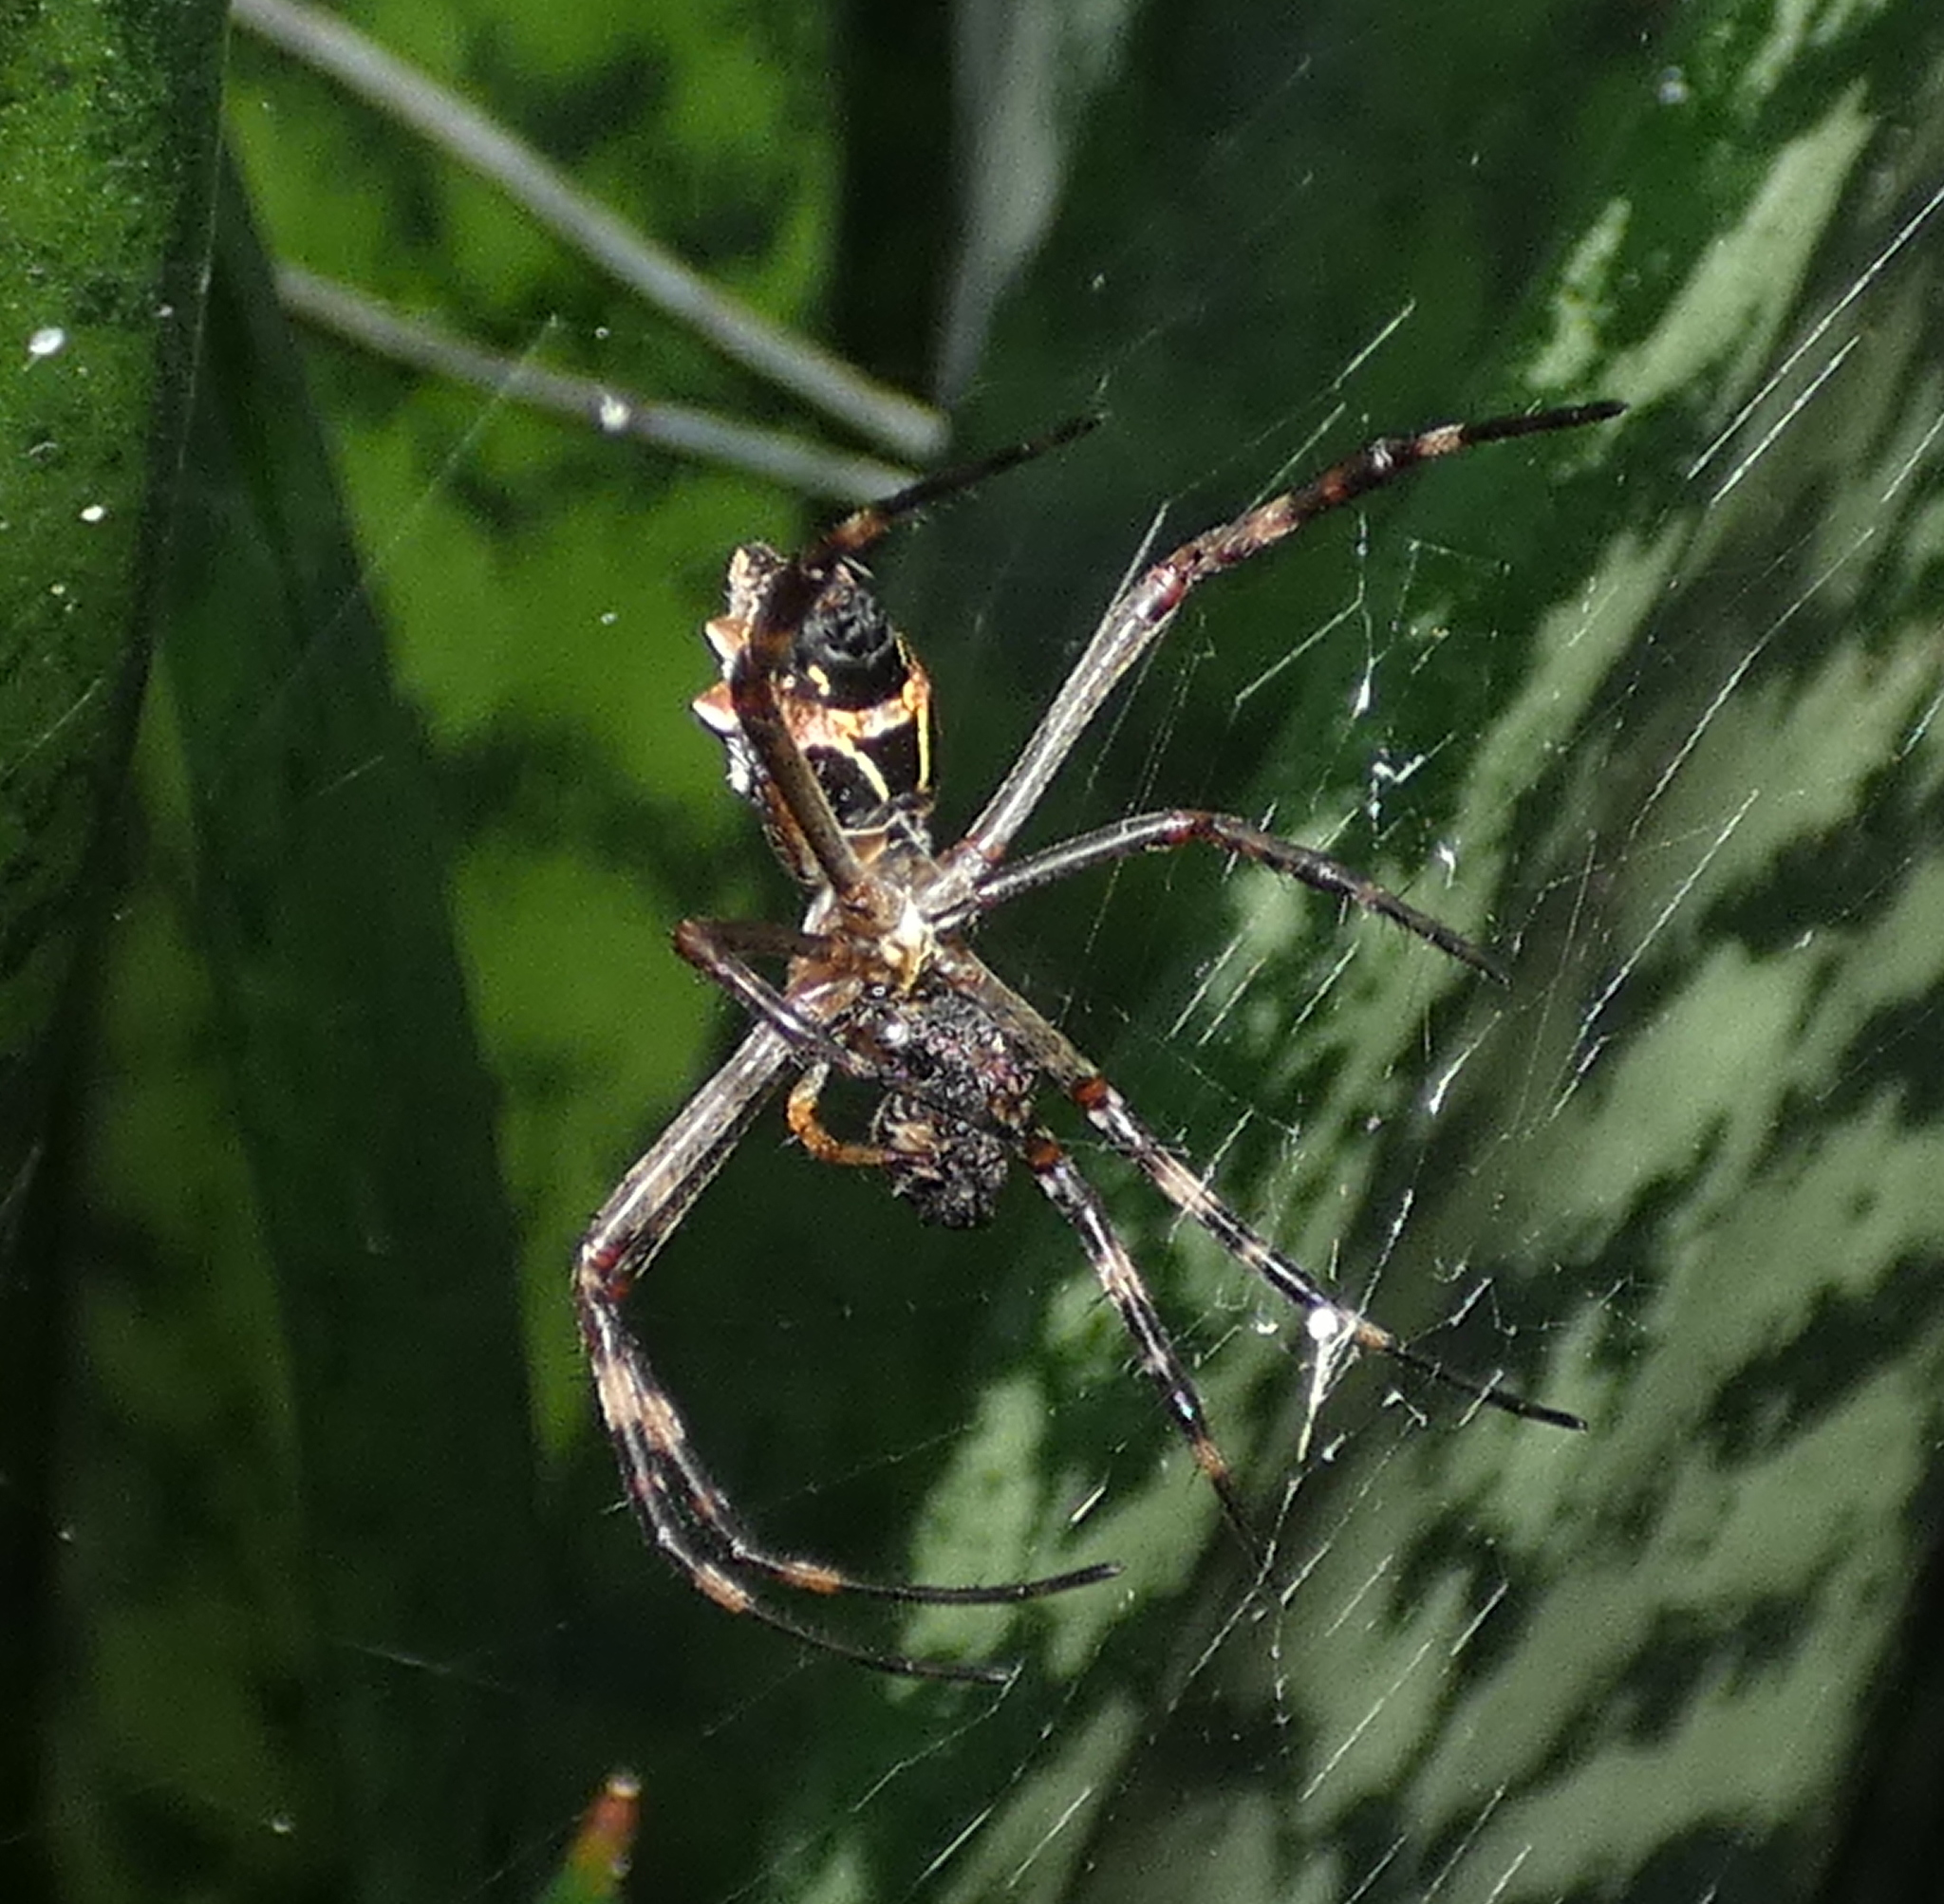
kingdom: Animalia
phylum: Arthropoda
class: Arachnida
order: Araneae
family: Araneidae
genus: Argiope
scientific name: Argiope argentata
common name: Orb weavers
